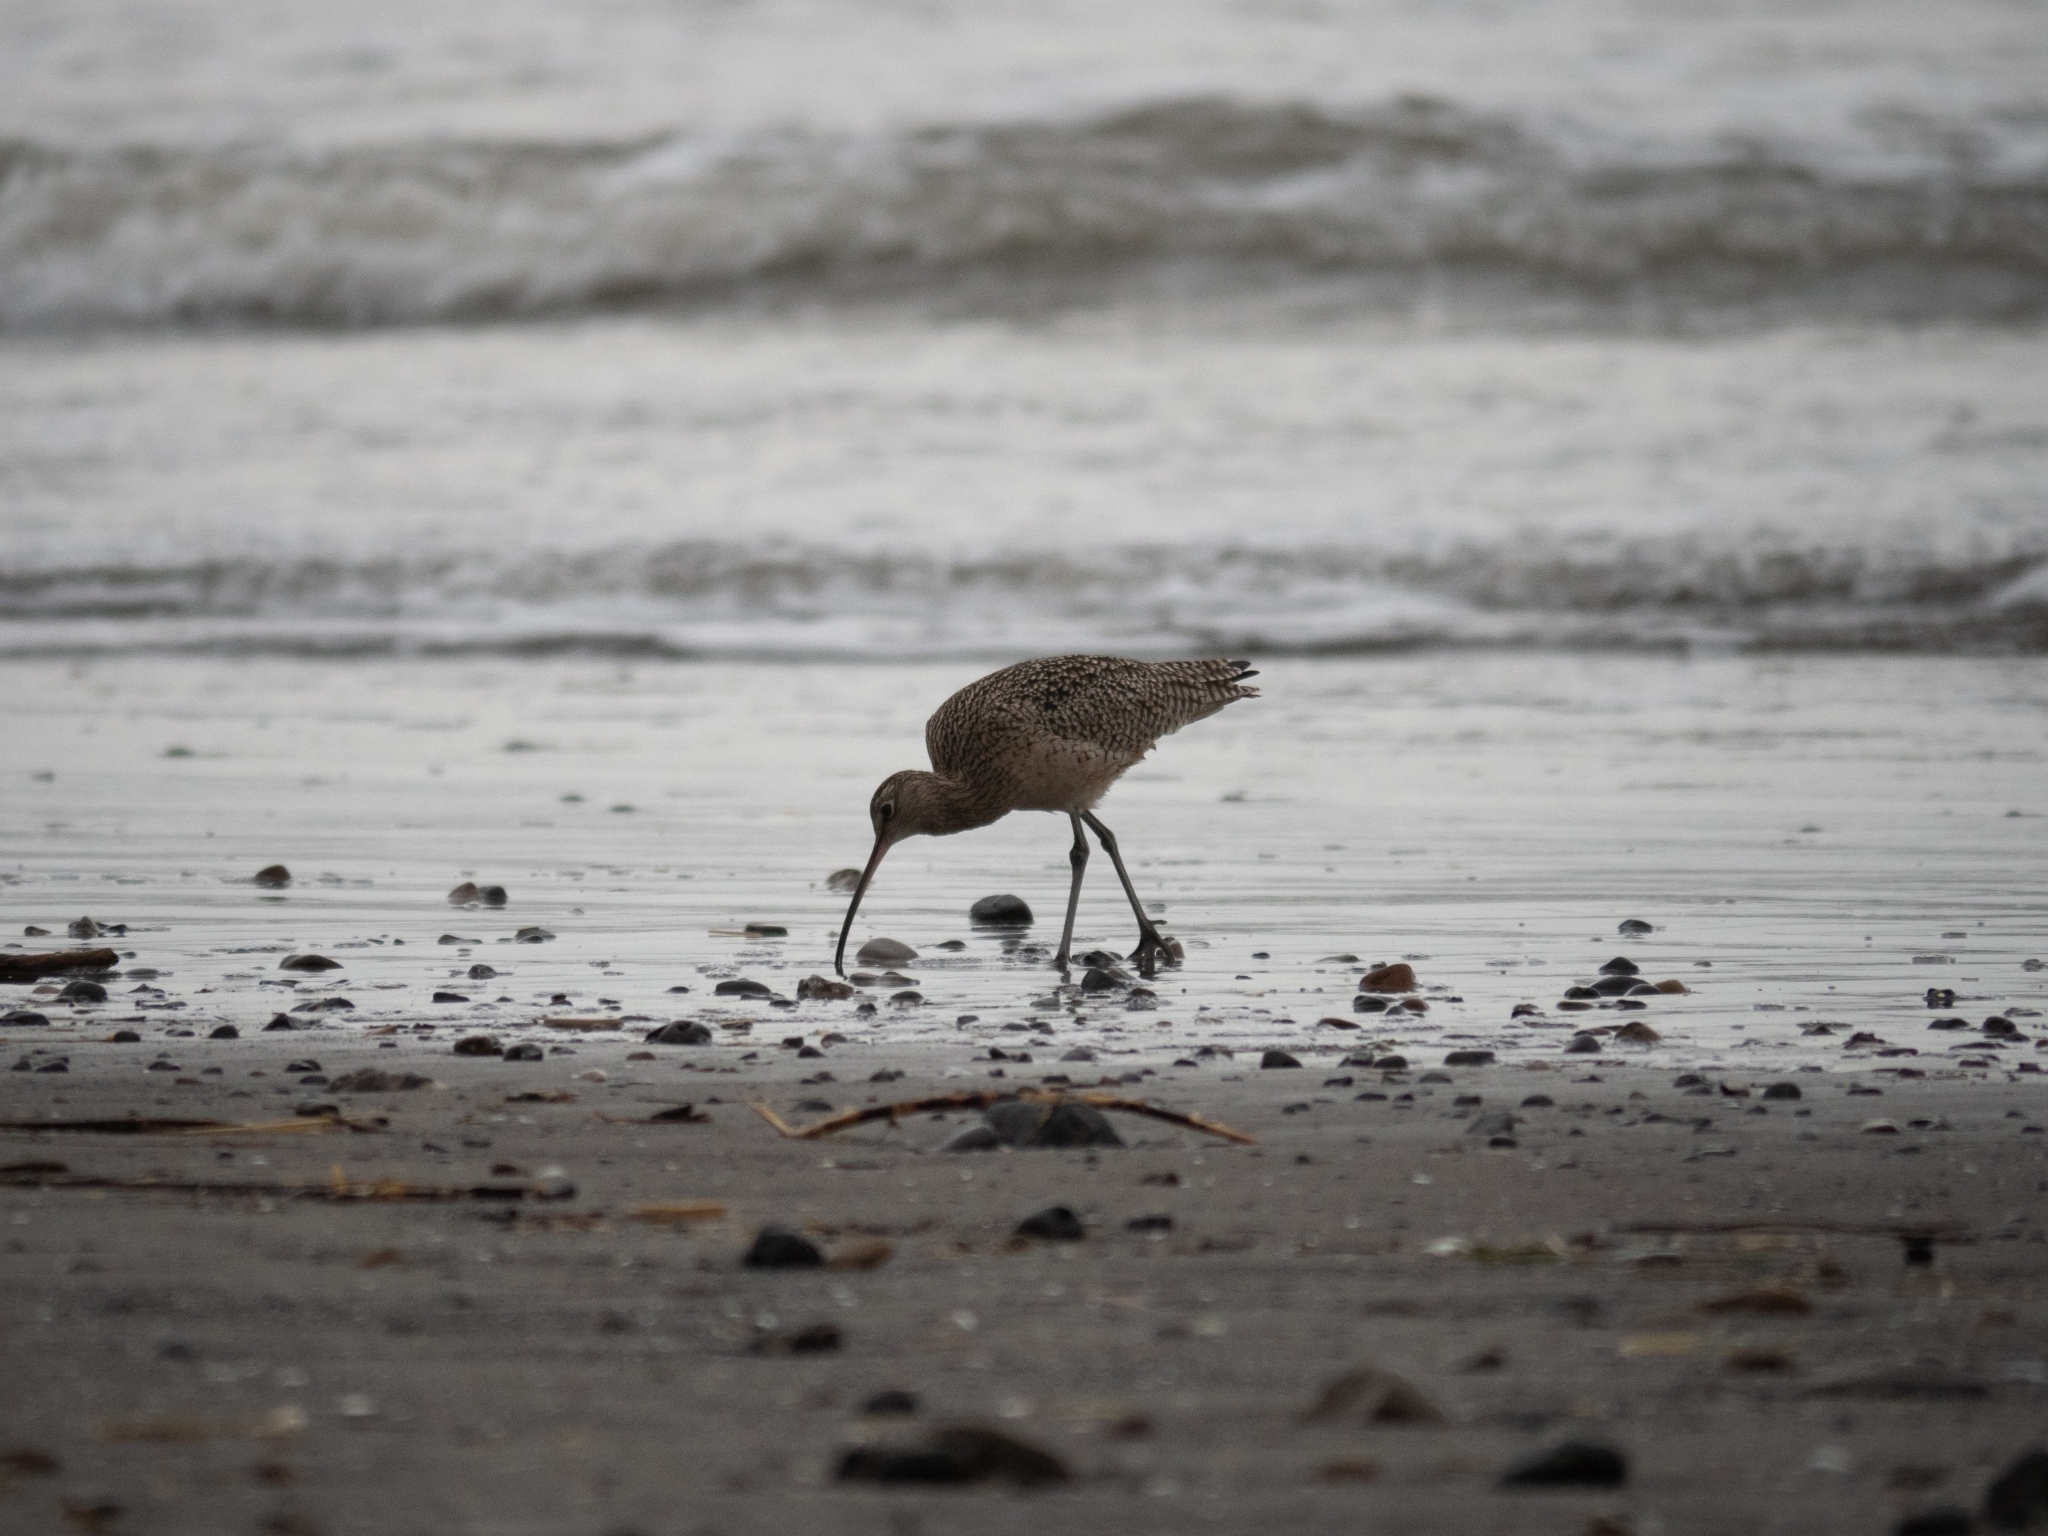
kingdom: Animalia
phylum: Chordata
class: Aves
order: Charadriiformes
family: Scolopacidae
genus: Numenius
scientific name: Numenius americanus
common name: Long-billed curlew
